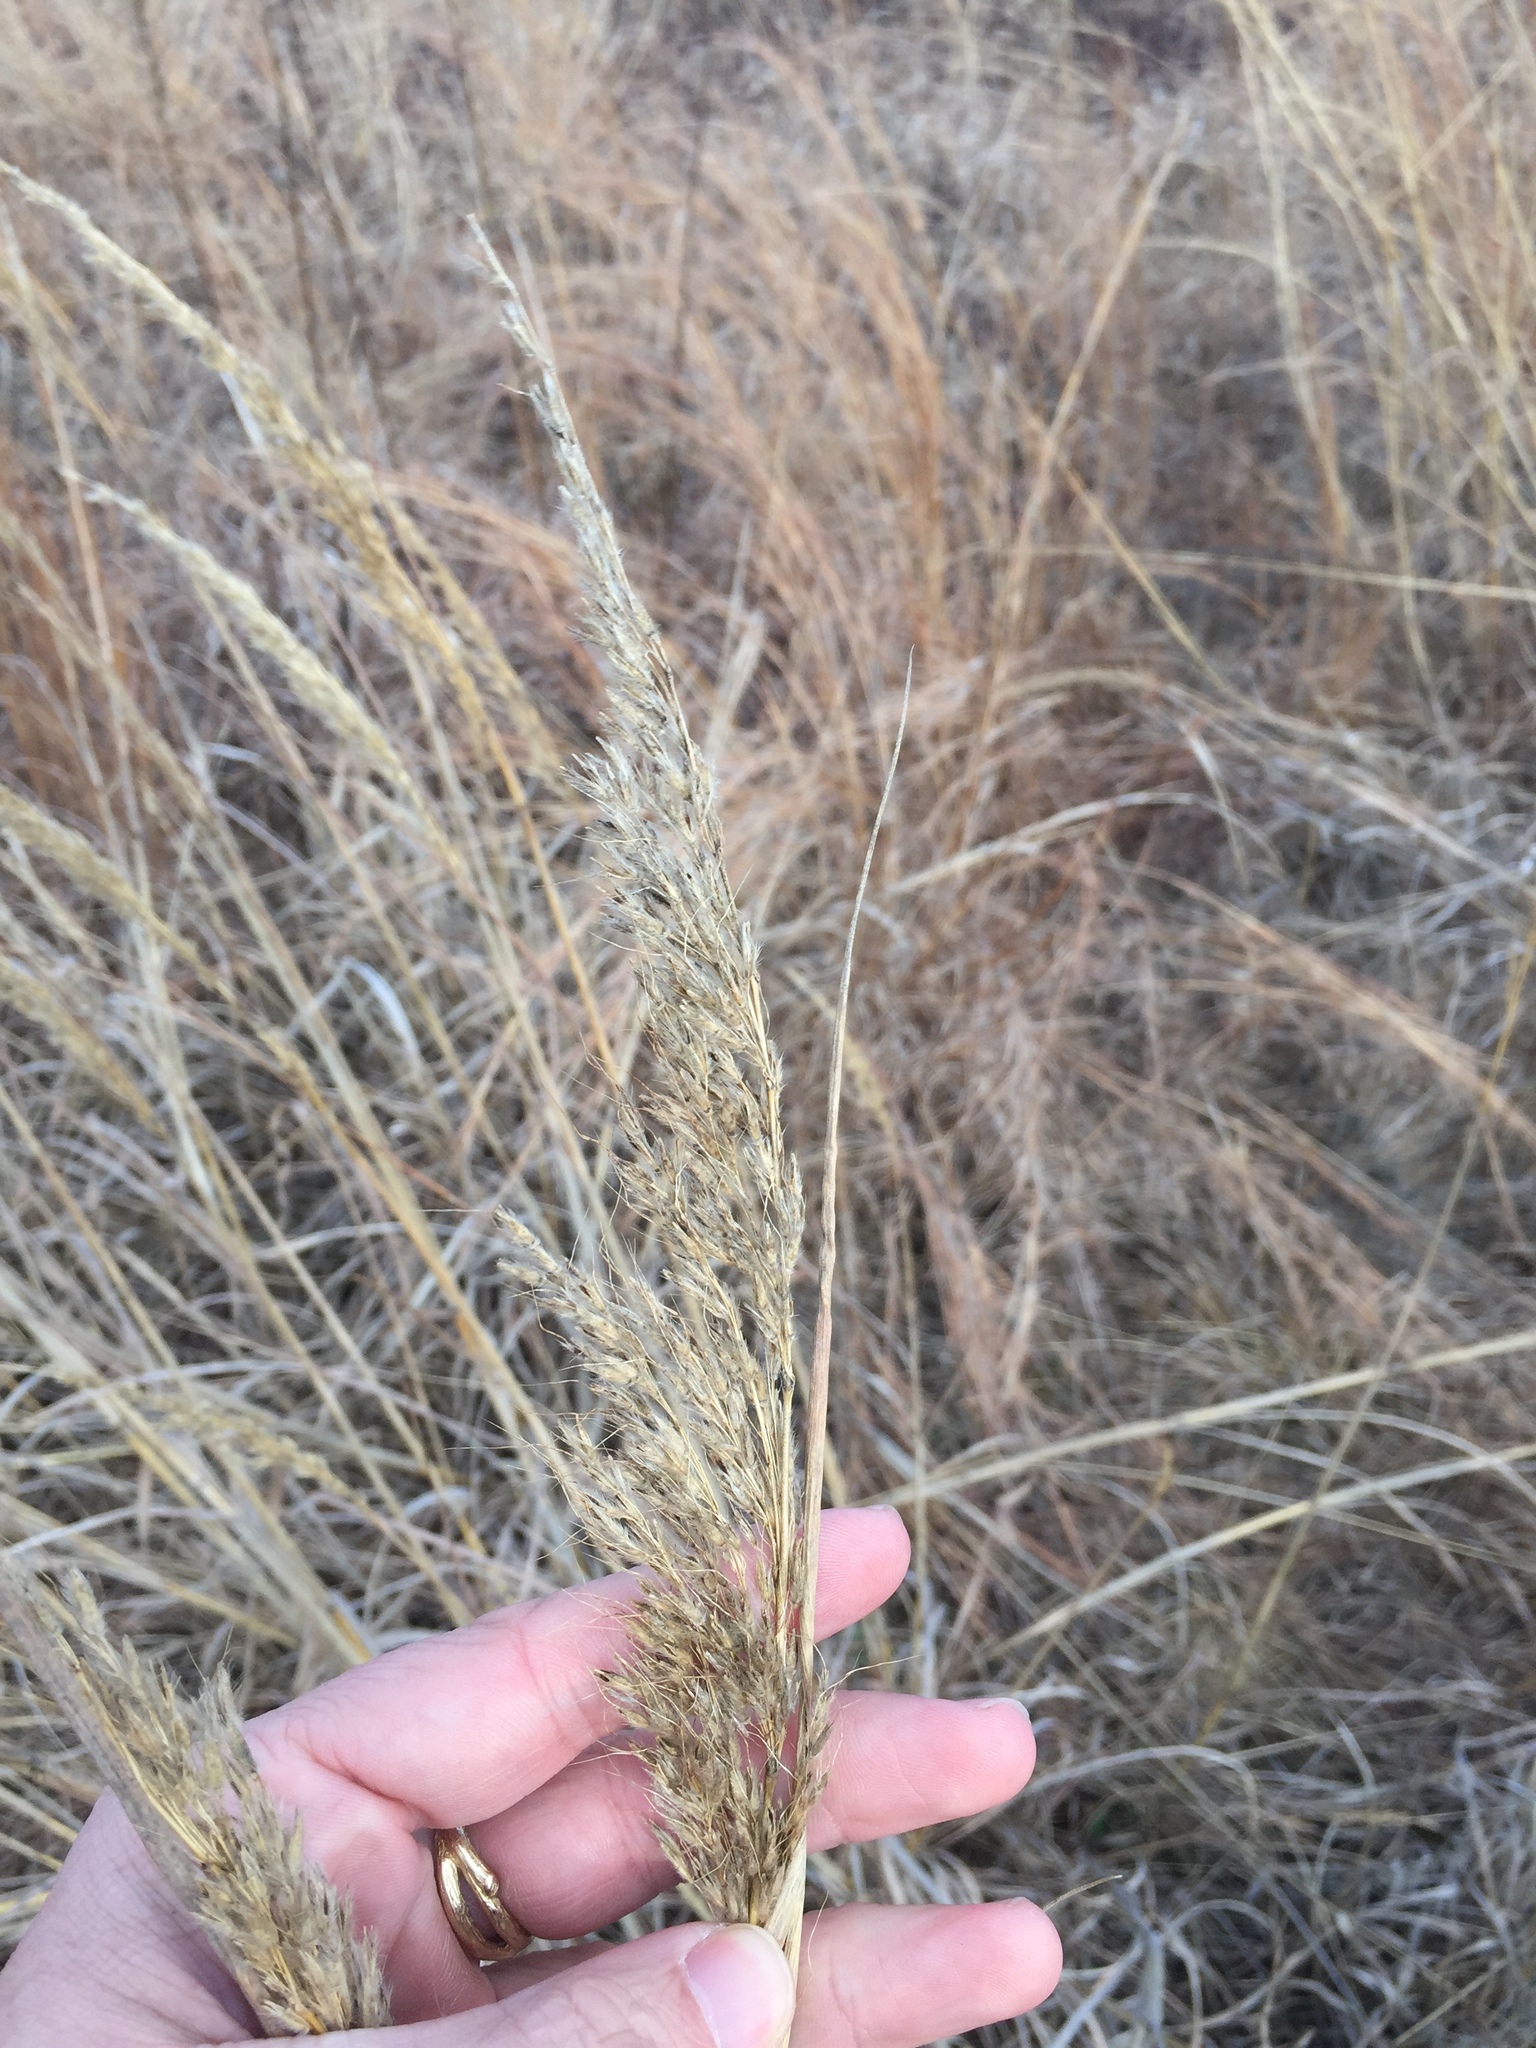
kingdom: Plantae
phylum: Tracheophyta
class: Liliopsida
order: Poales
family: Poaceae
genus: Sorghastrum
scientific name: Sorghastrum nutans
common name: Indian grass
